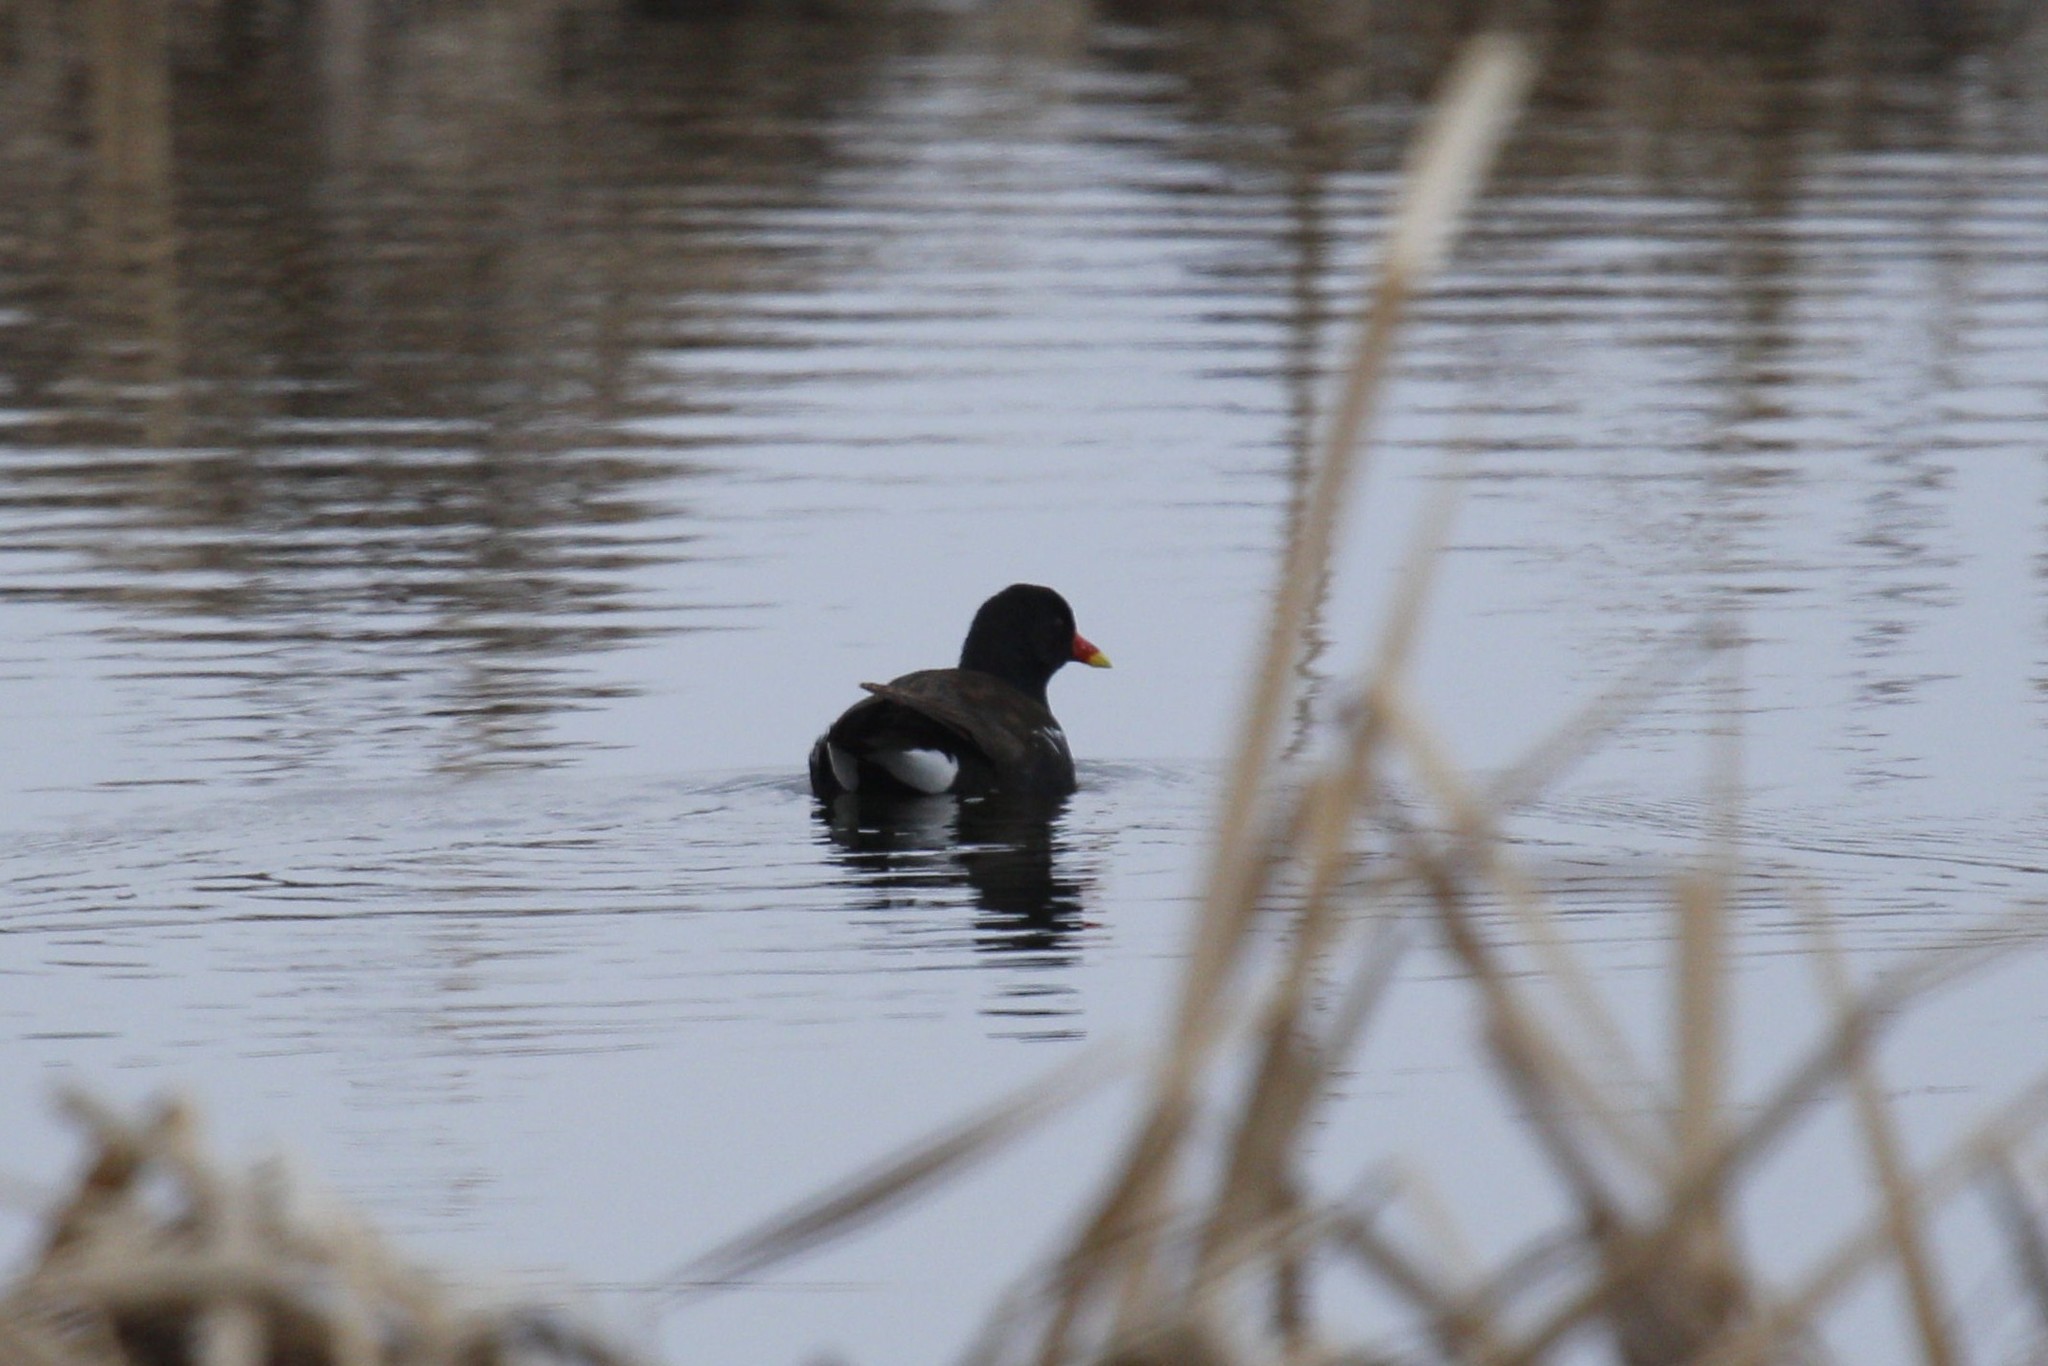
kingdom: Animalia
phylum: Chordata
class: Aves
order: Gruiformes
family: Rallidae
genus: Gallinula
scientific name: Gallinula chloropus
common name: Common moorhen
